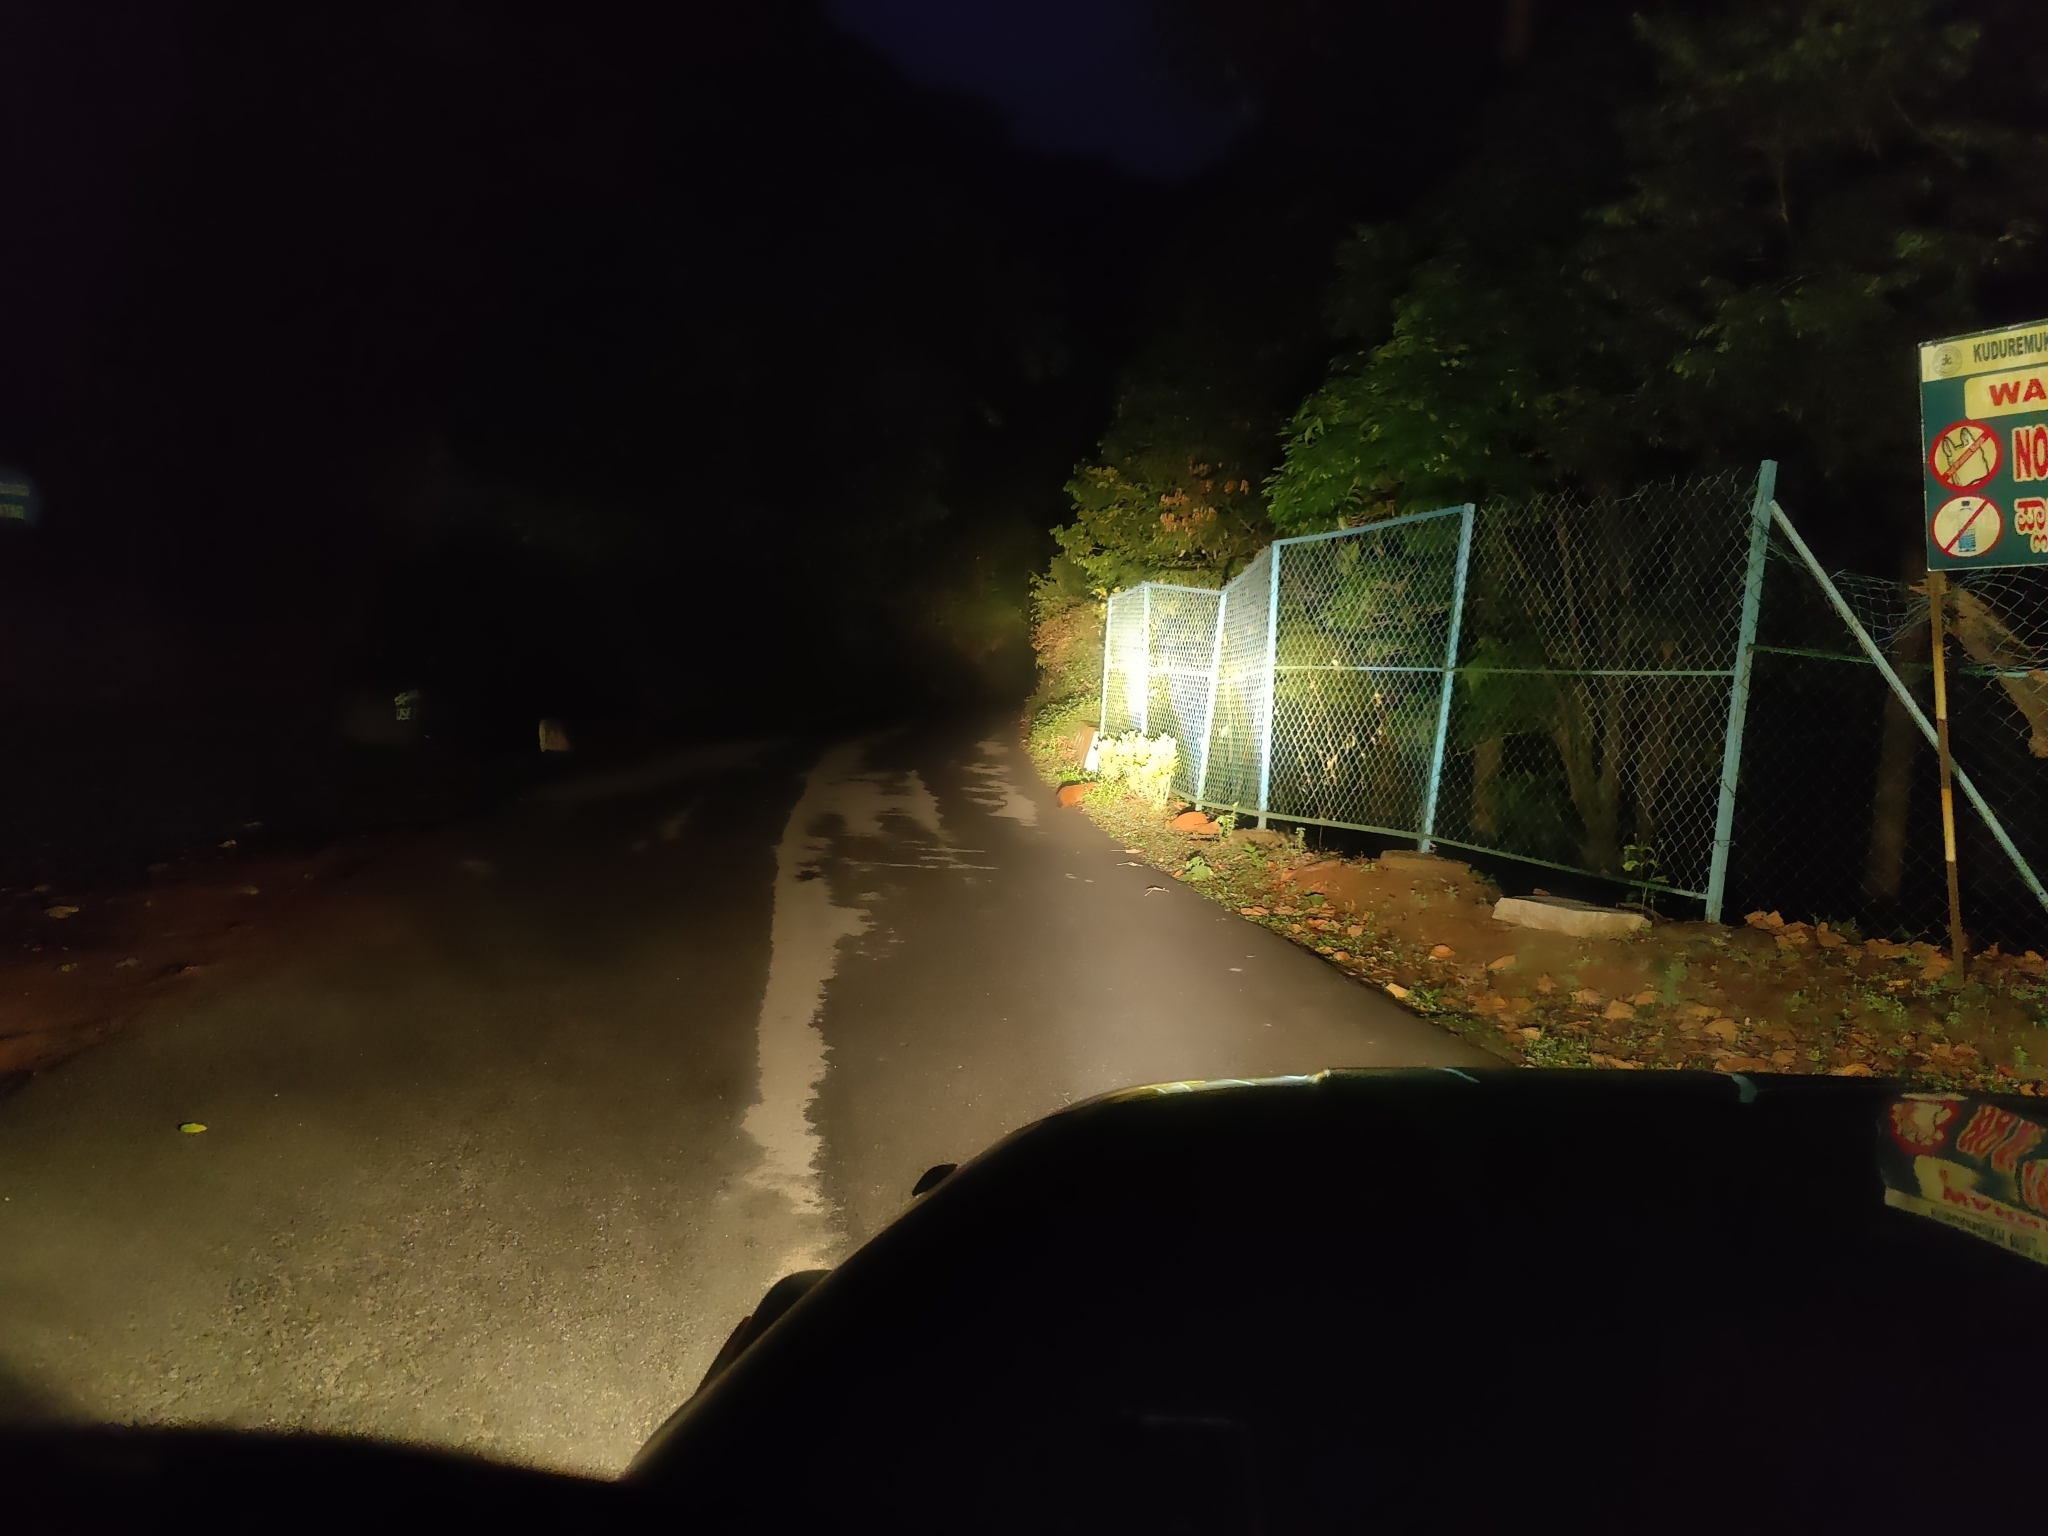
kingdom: Animalia
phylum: Chordata
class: Mammalia
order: Carnivora
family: Herpestidae
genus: Herpestes
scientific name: Herpestes vitticollis
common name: Stripe-necked mongoose
